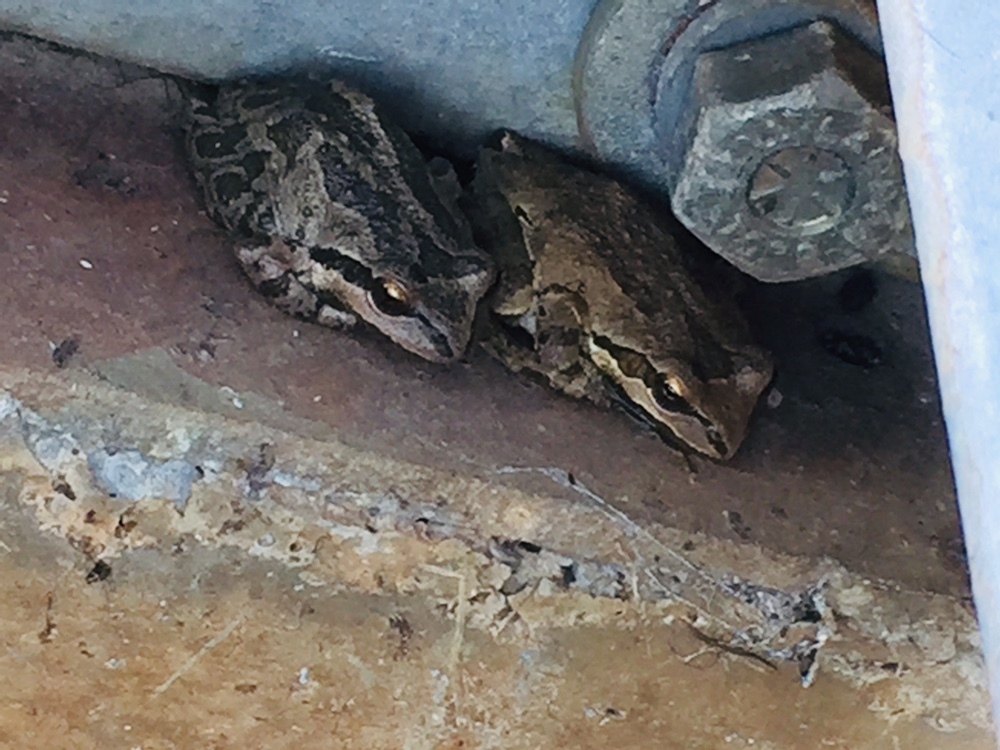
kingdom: Animalia
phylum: Chordata
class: Amphibia
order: Anura
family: Hylidae
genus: Pseudacris
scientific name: Pseudacris regilla
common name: Pacific chorus frog
